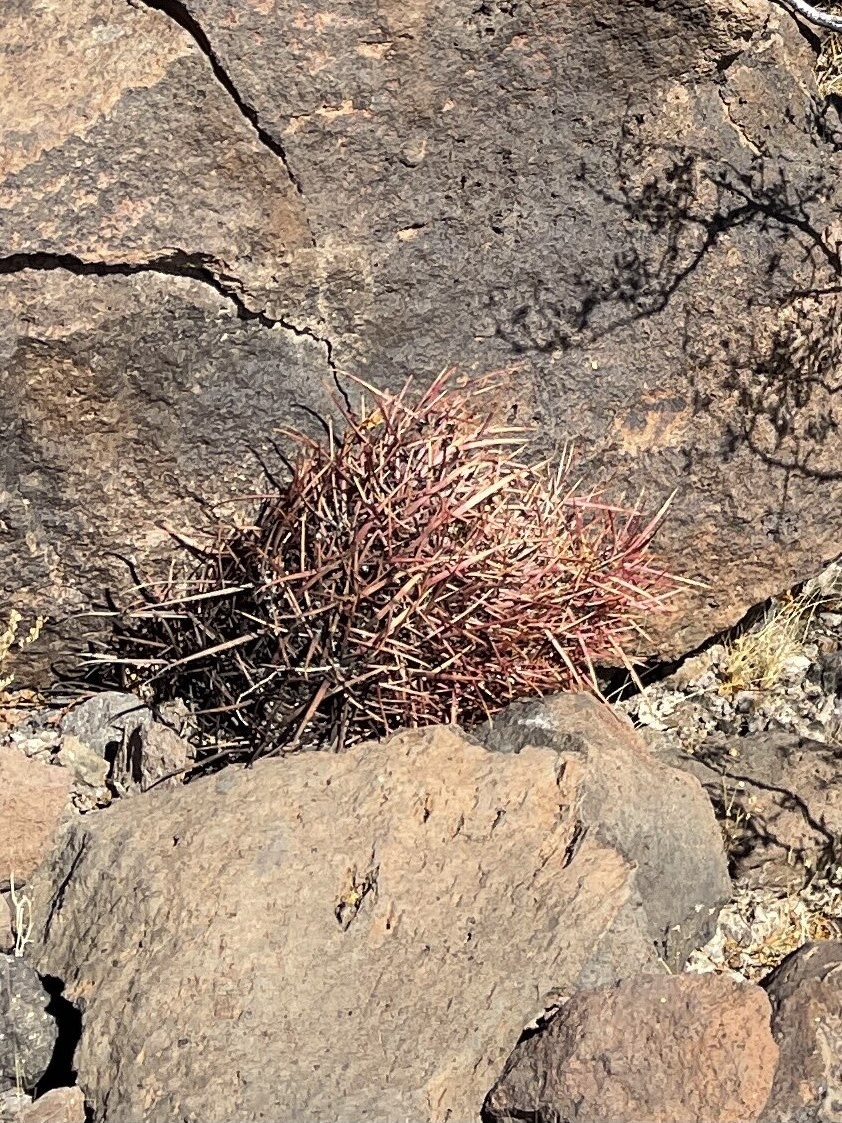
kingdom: Plantae
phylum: Tracheophyta
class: Magnoliopsida
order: Caryophyllales
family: Cactaceae
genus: Ferocactus
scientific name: Ferocactus cylindraceus
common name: California barrel cactus
